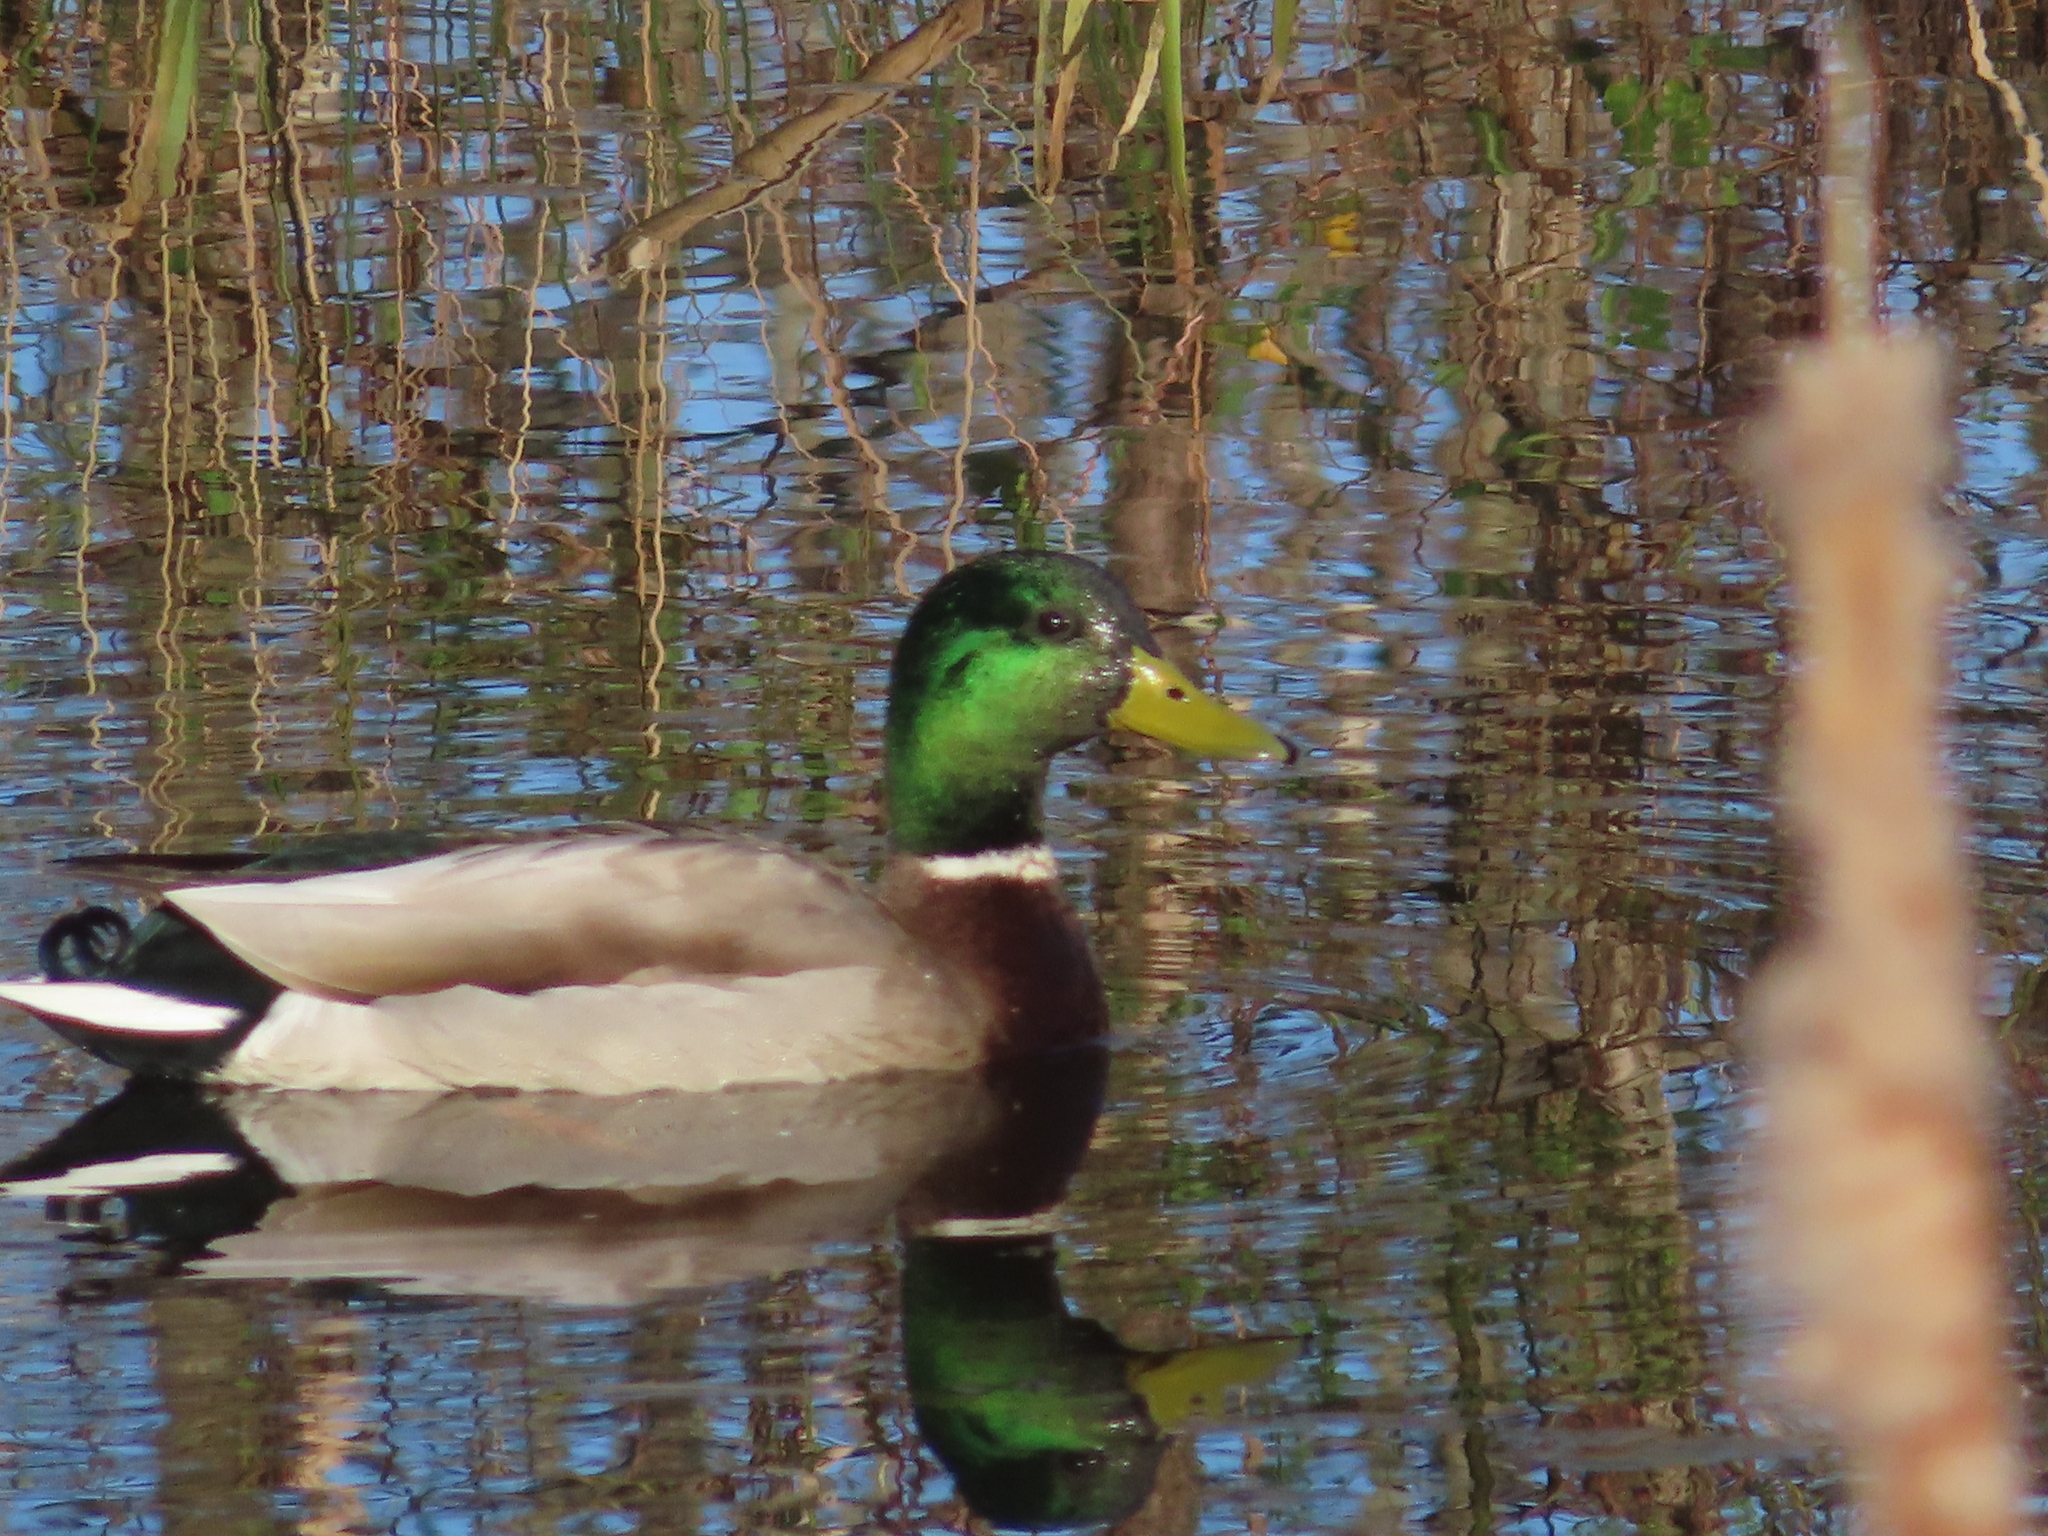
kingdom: Animalia
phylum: Chordata
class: Aves
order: Anseriformes
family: Anatidae
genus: Anas
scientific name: Anas platyrhynchos
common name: Mallard
